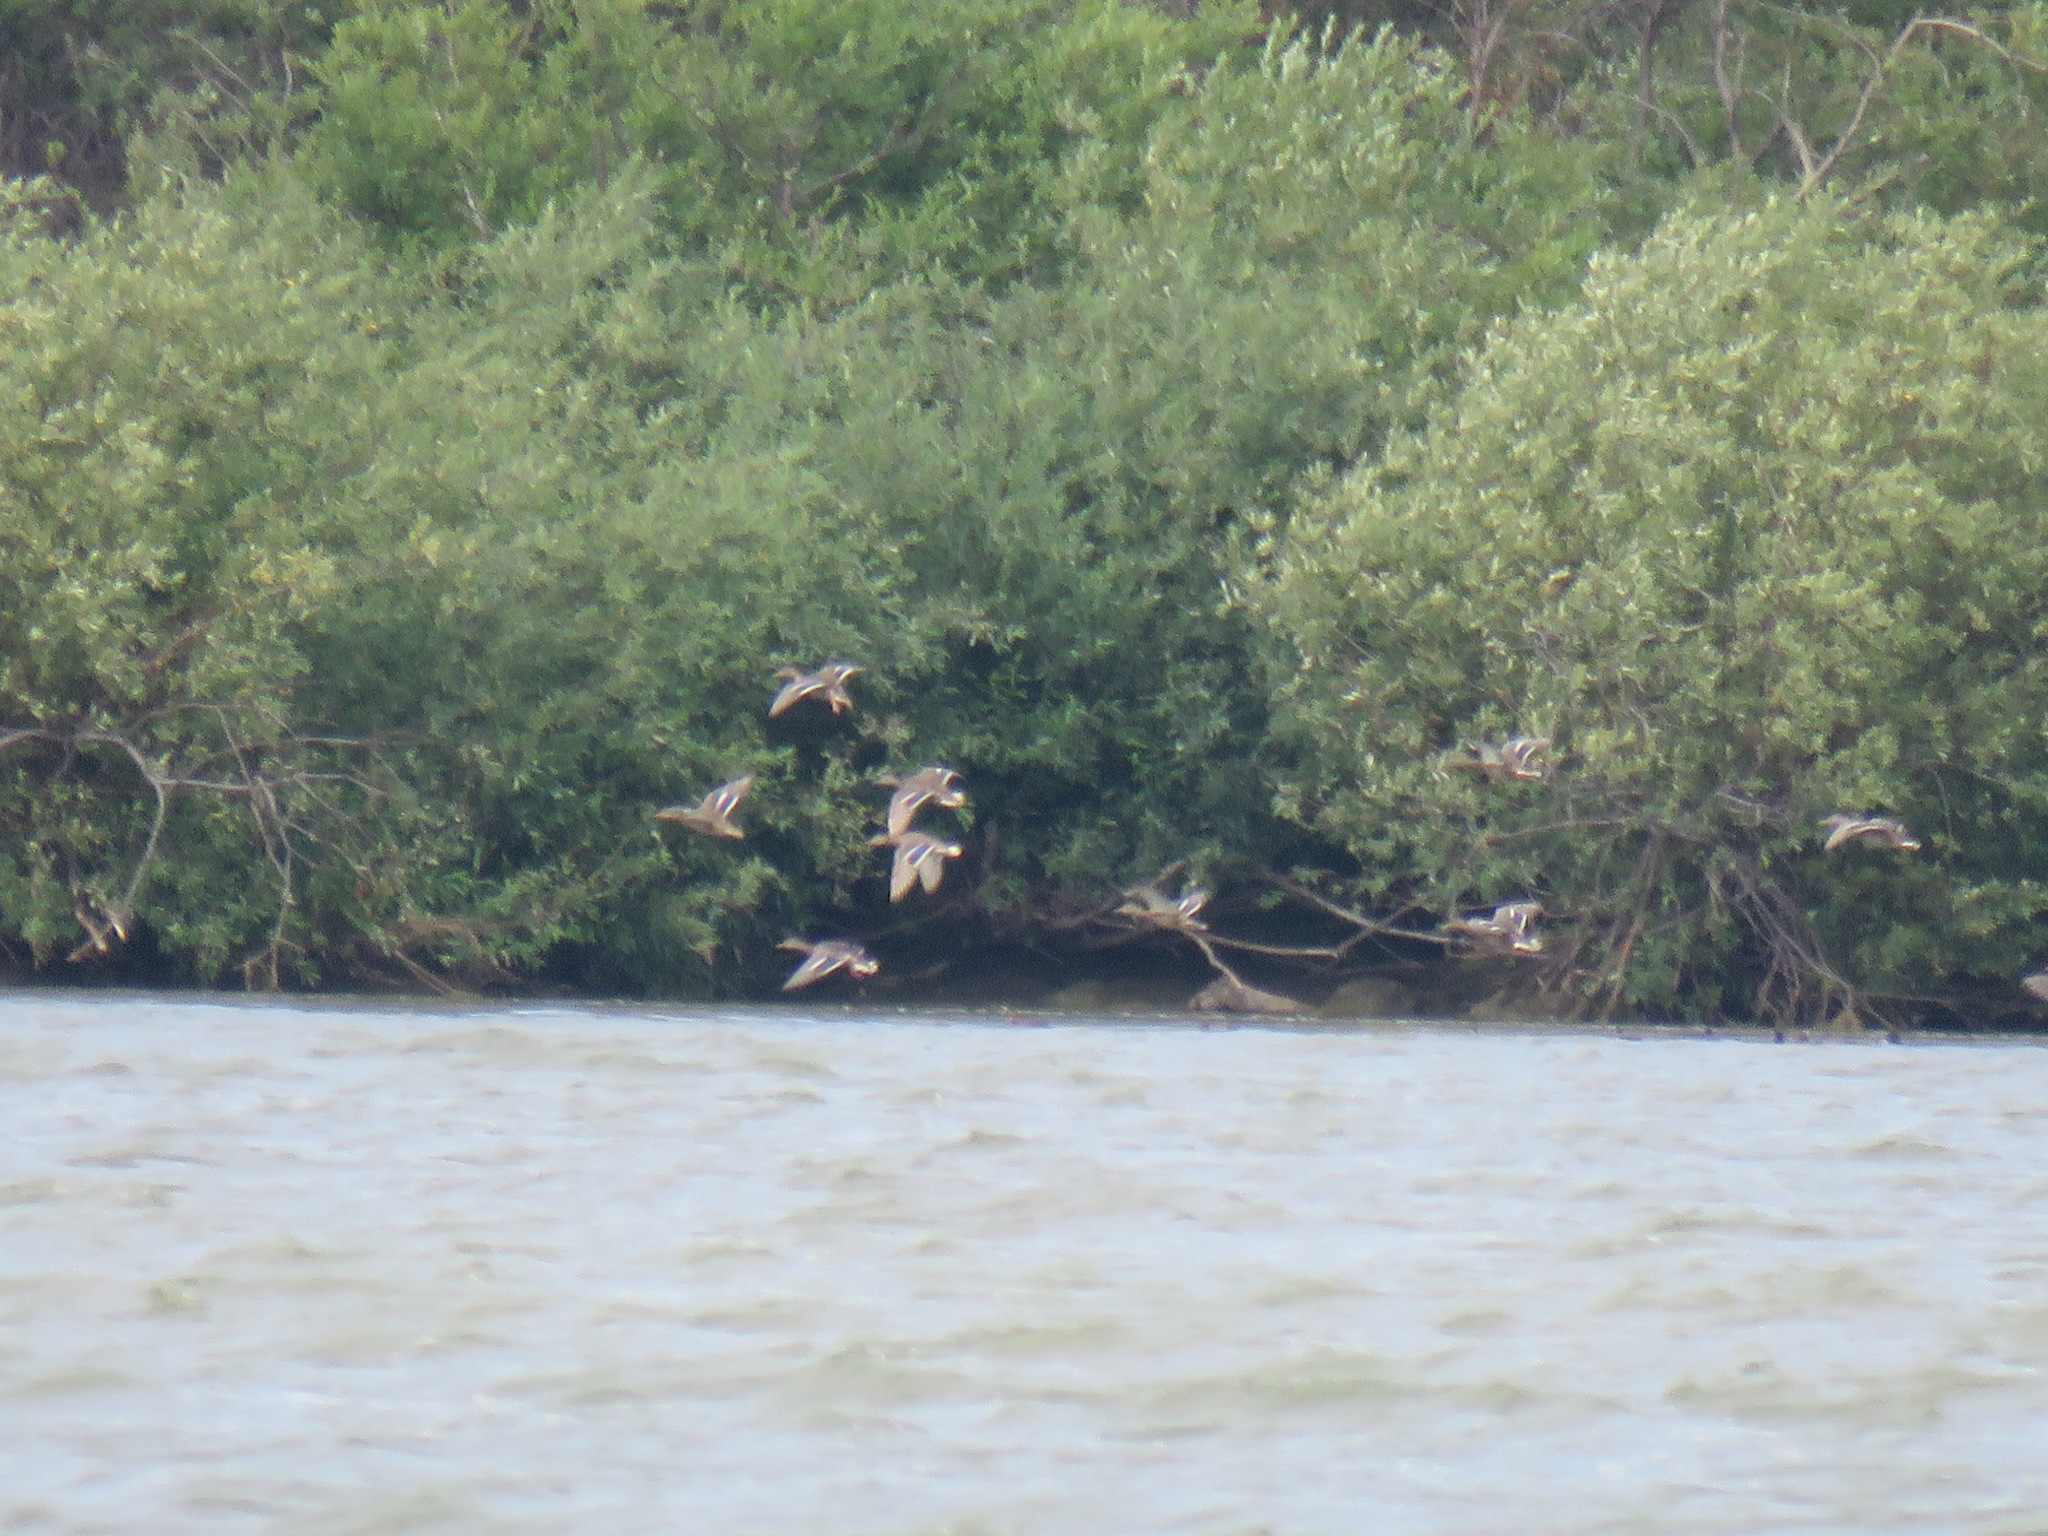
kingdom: Animalia
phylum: Chordata
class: Aves
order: Anseriformes
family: Anatidae
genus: Anas
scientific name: Anas platyrhynchos
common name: Mallard
